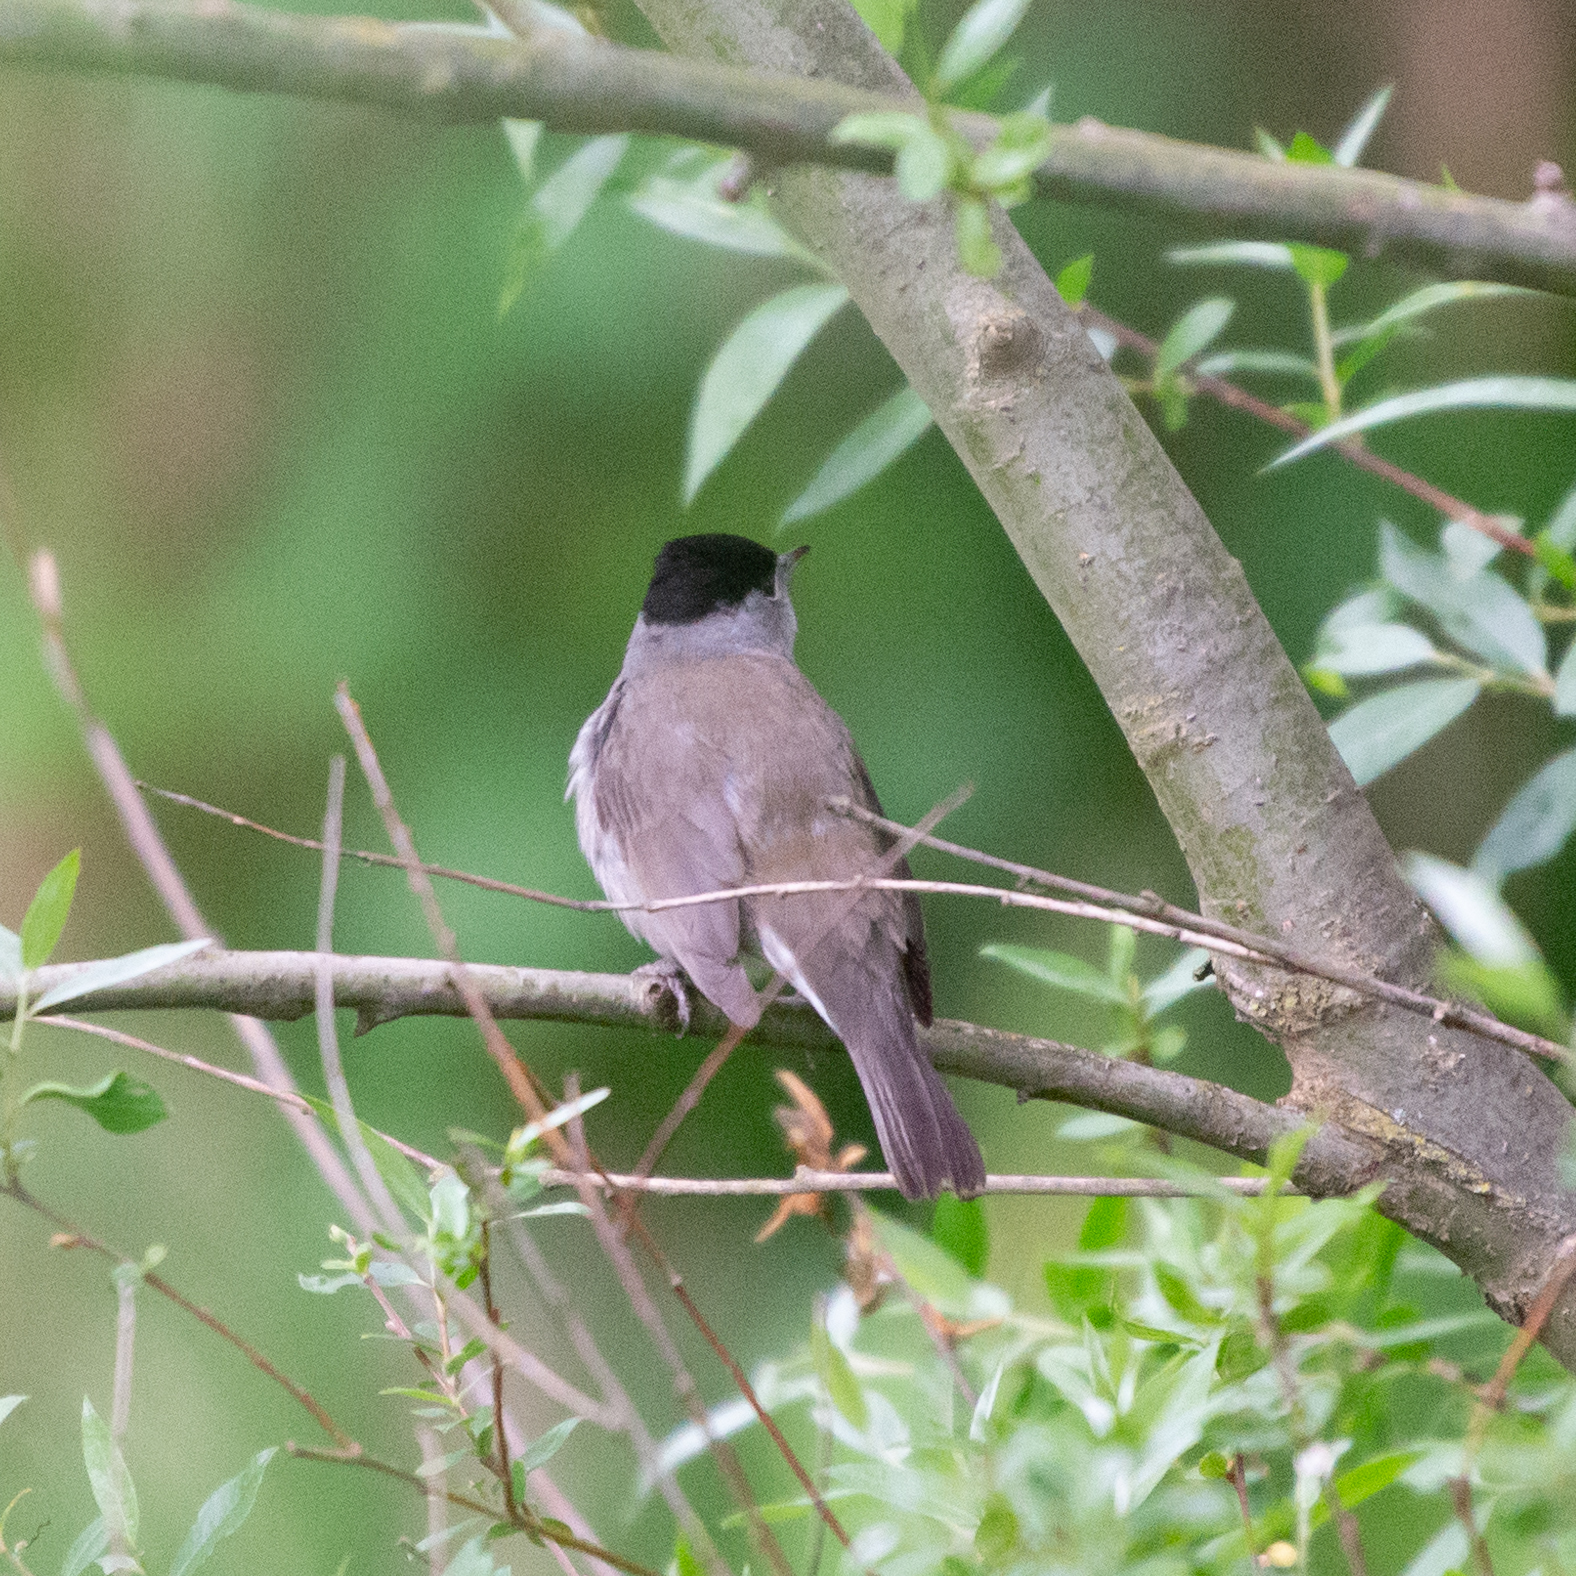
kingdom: Animalia
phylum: Chordata
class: Aves
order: Passeriformes
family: Sylviidae
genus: Sylvia
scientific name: Sylvia atricapilla
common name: Eurasian blackcap
